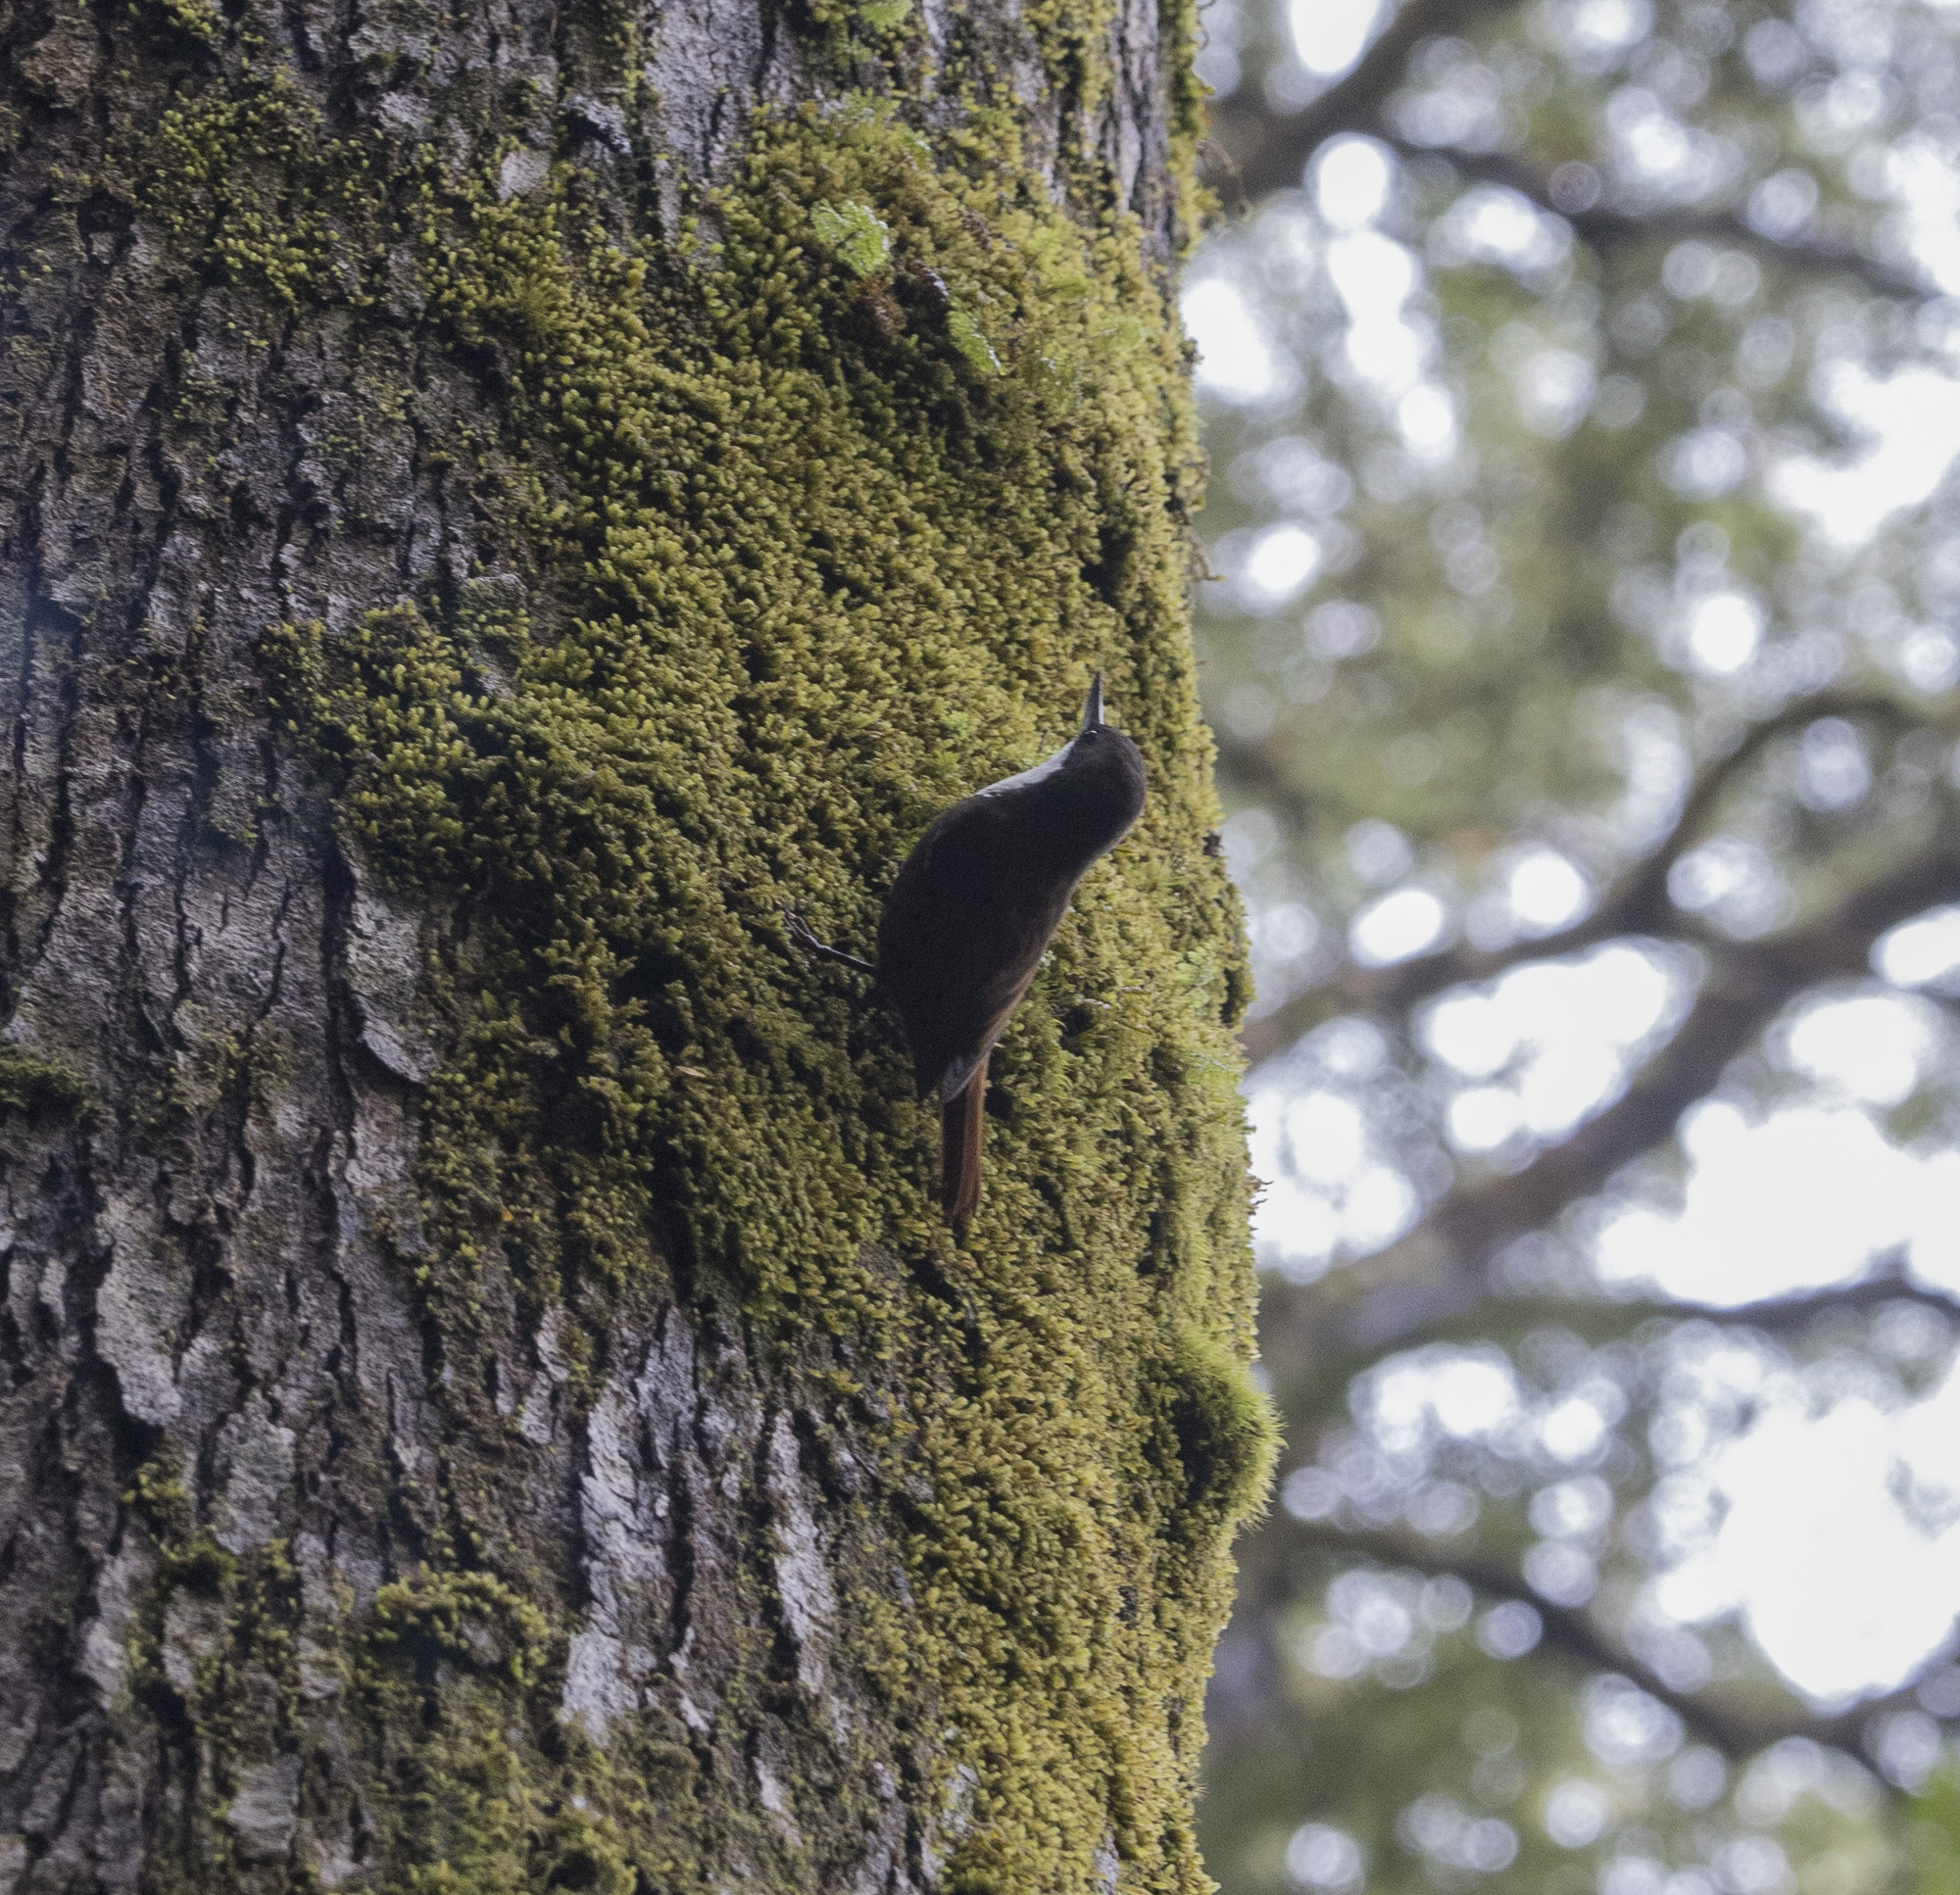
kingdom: Animalia
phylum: Chordata
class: Aves
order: Passeriformes
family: Furnariidae
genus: Pygarrhichas
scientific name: Pygarrhichas albogularis
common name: White-throated treerunner
